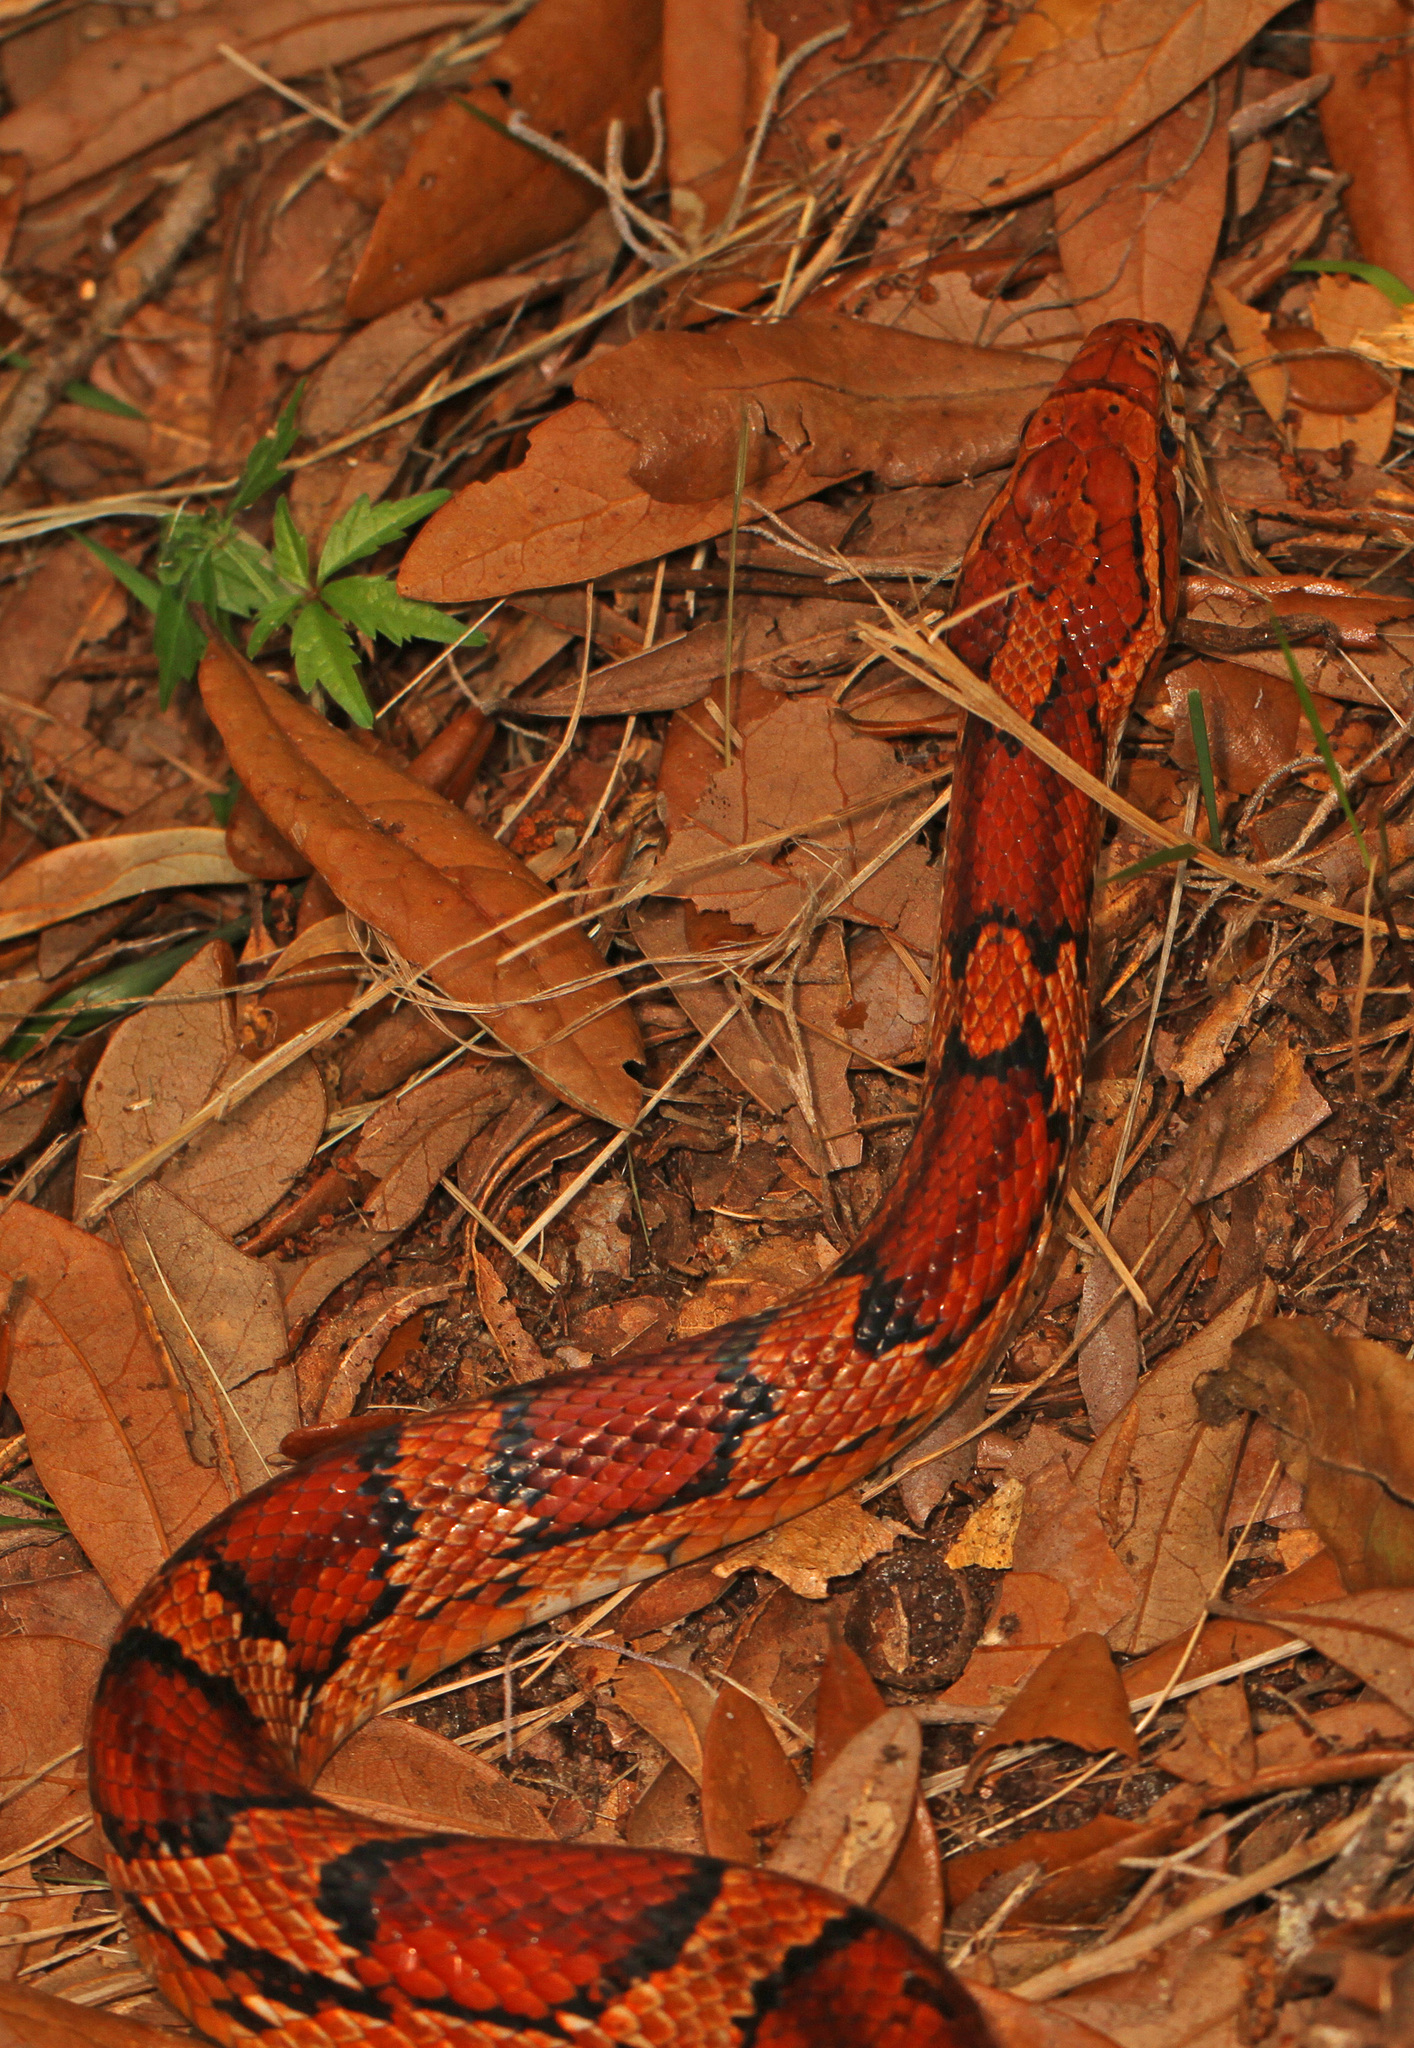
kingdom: Animalia
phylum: Chordata
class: Squamata
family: Colubridae
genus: Pantherophis
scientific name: Pantherophis guttatus
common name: Red cornsnake
